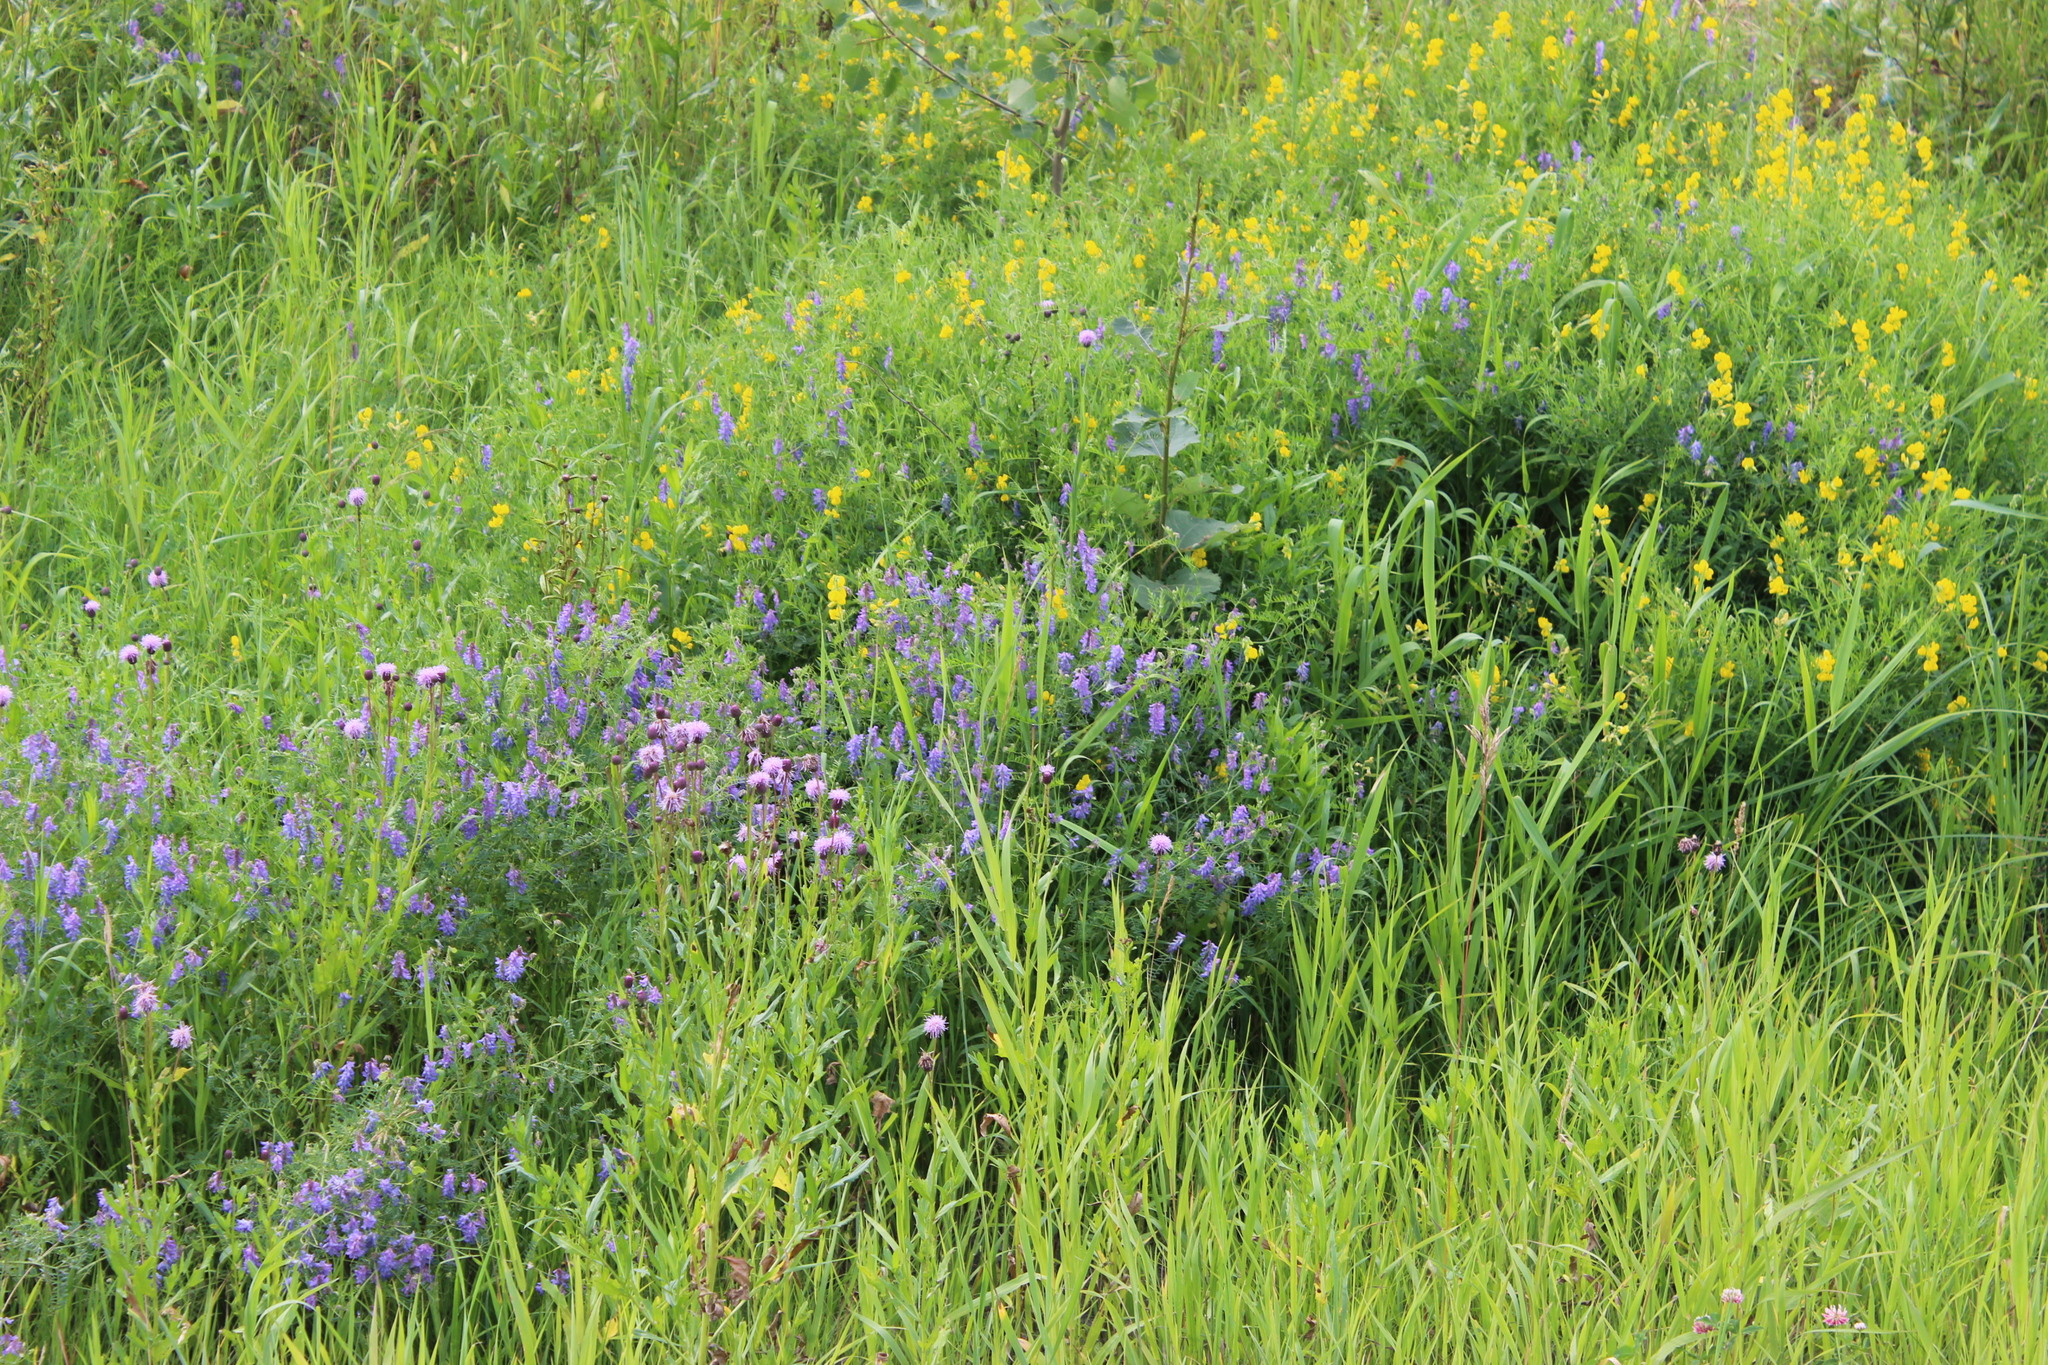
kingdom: Plantae
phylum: Tracheophyta
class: Magnoliopsida
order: Fabales
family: Fabaceae
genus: Vicia
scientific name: Vicia cracca
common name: Bird vetch
